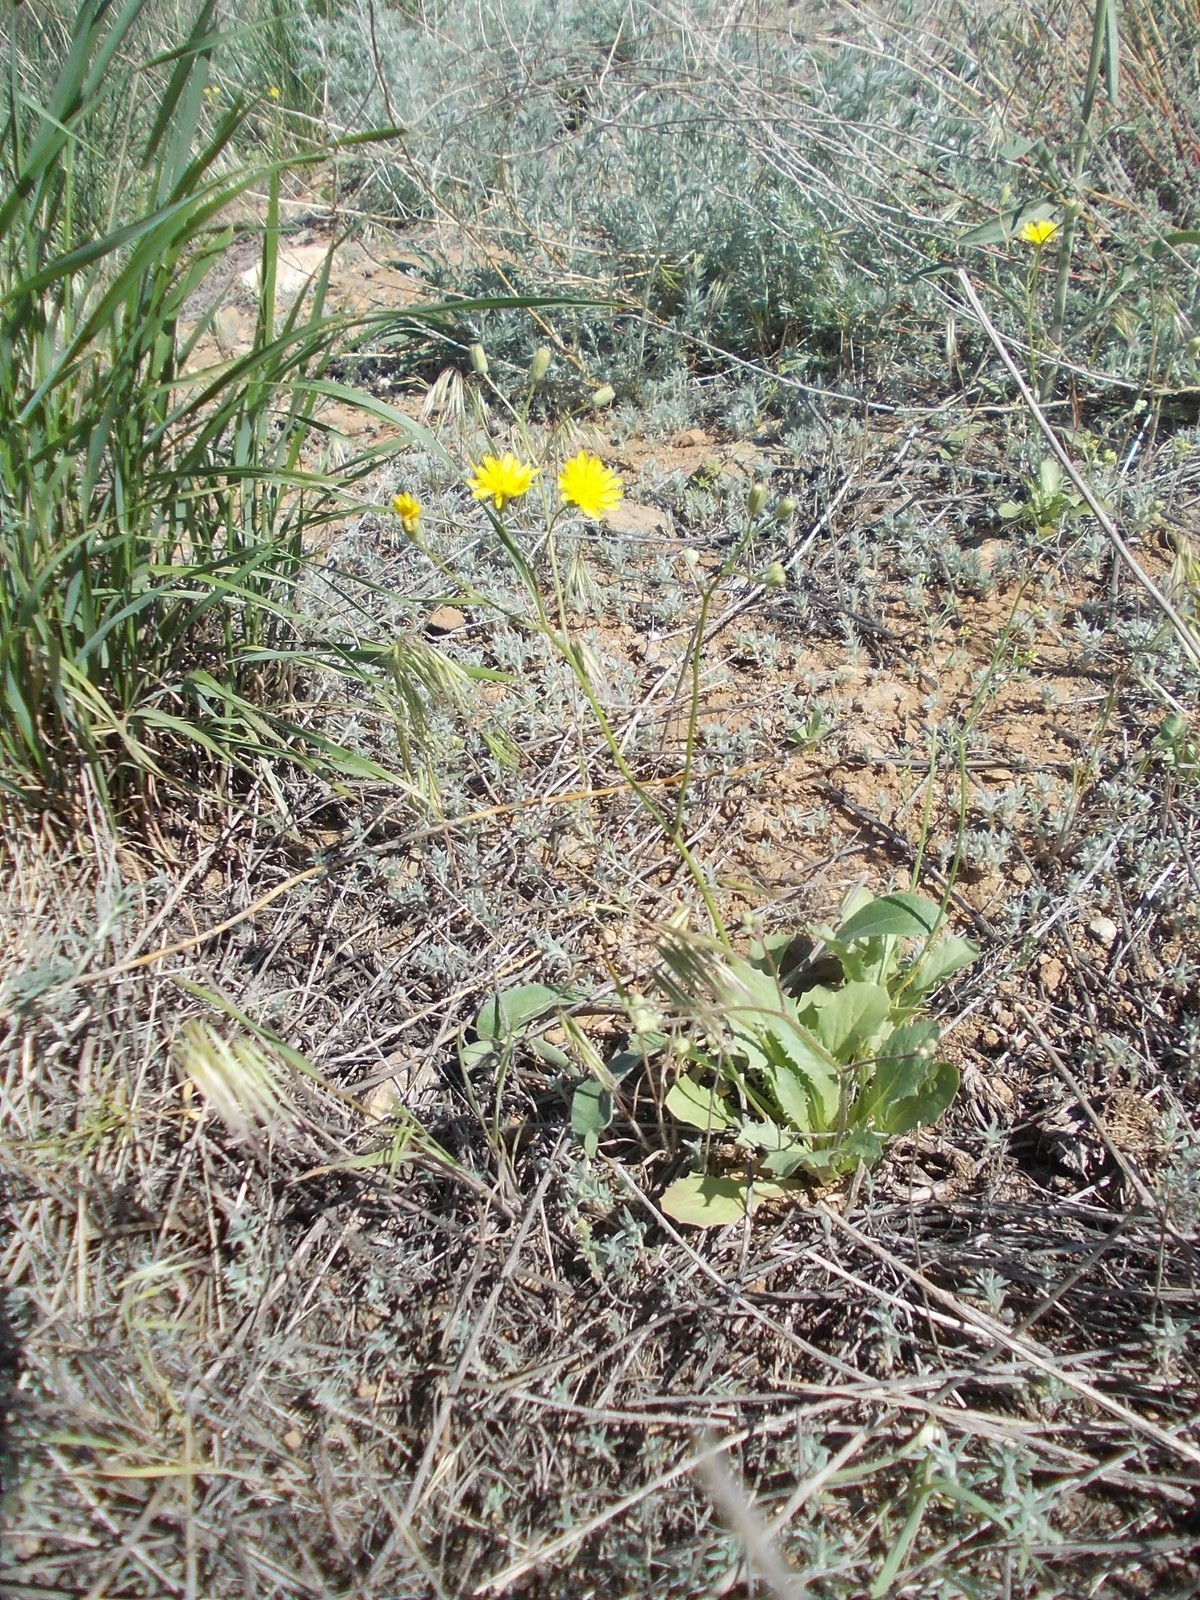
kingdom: Plantae
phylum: Tracheophyta
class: Magnoliopsida
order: Asterales
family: Asteraceae
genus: Crepis
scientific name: Crepis sancta
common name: Hawk's-beard
